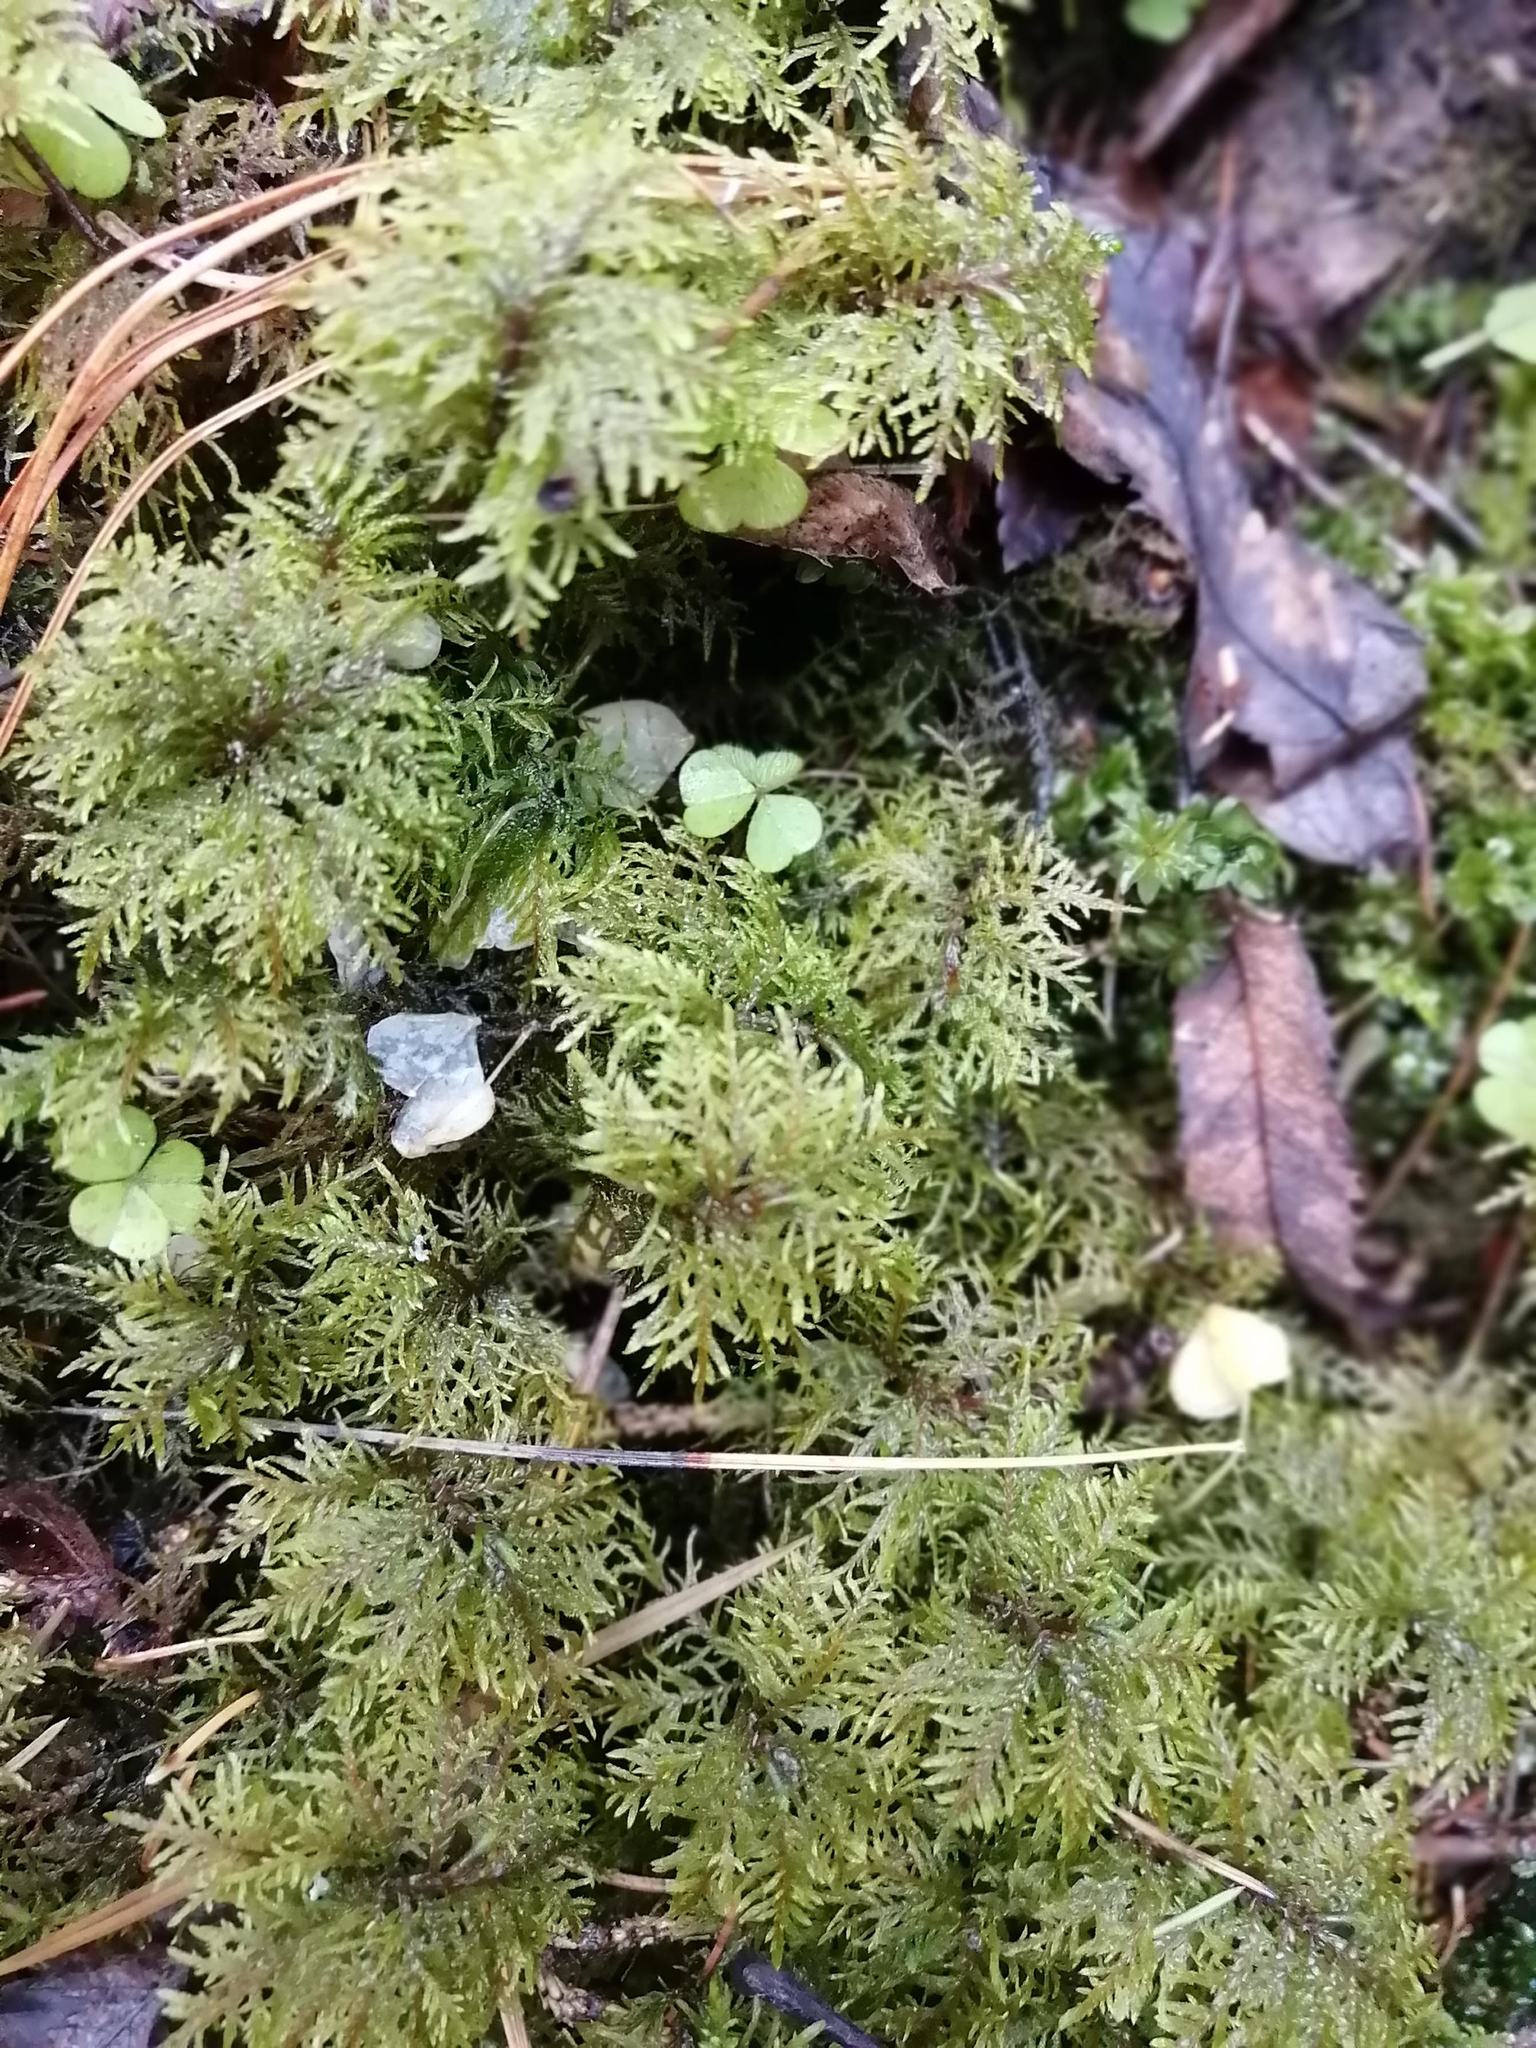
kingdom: Plantae
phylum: Bryophyta
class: Bryopsida
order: Hypnales
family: Hylocomiaceae
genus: Hylocomium
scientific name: Hylocomium splendens
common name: Stairstep moss
